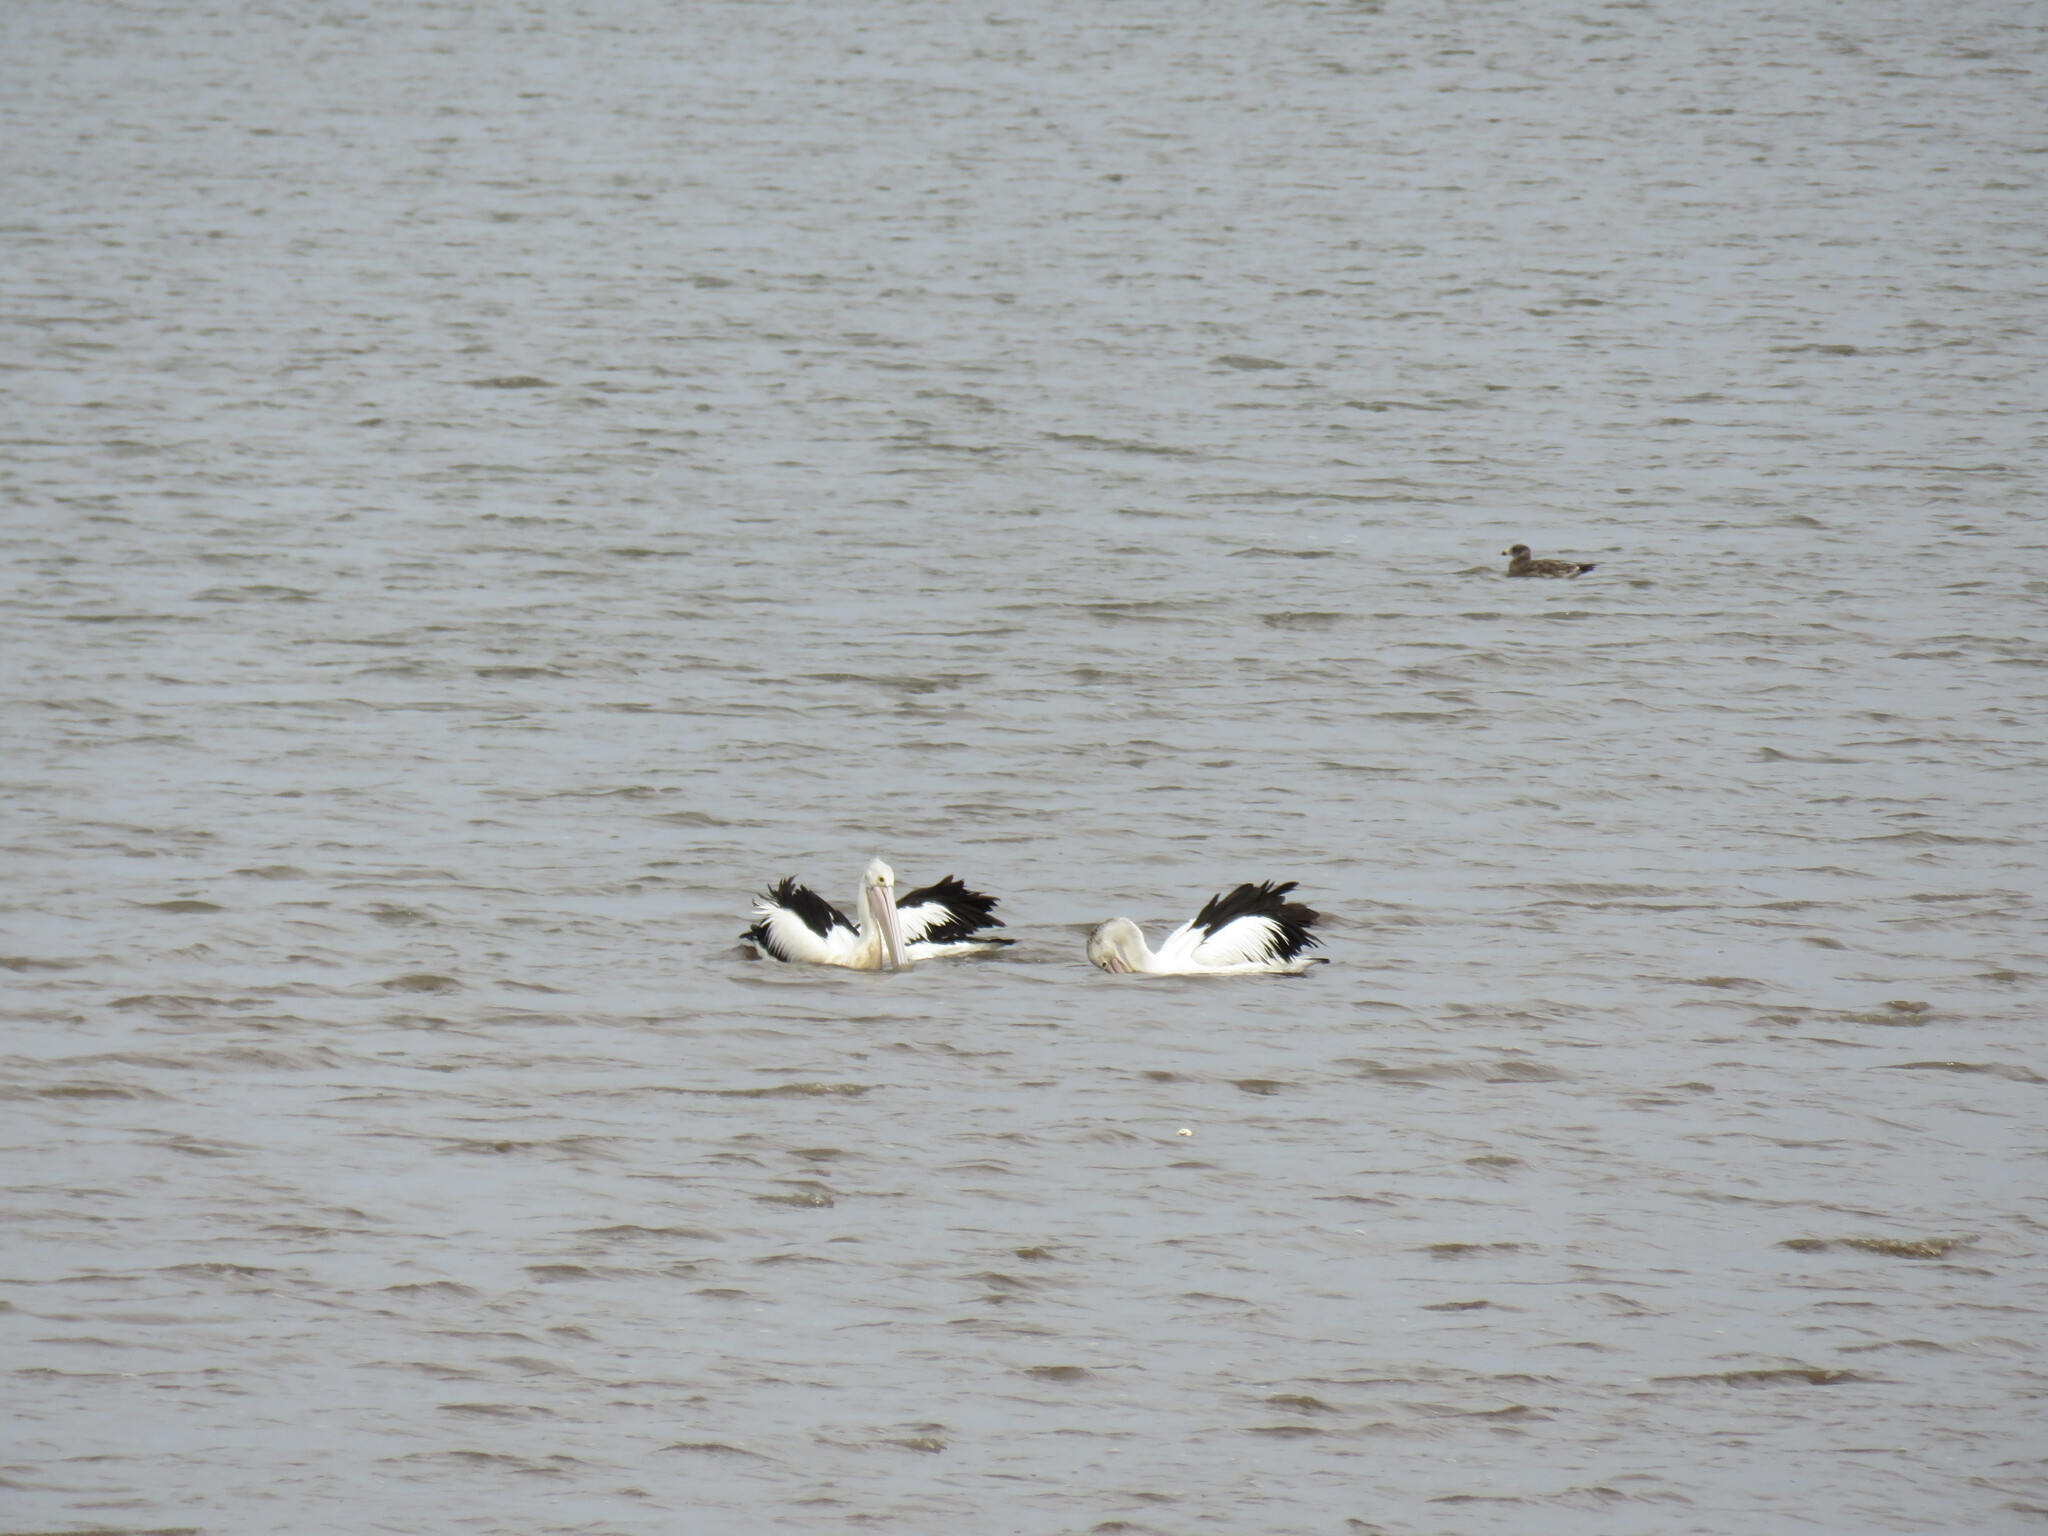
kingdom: Animalia
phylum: Chordata
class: Aves
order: Pelecaniformes
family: Pelecanidae
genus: Pelecanus
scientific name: Pelecanus conspicillatus
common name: Australian pelican
